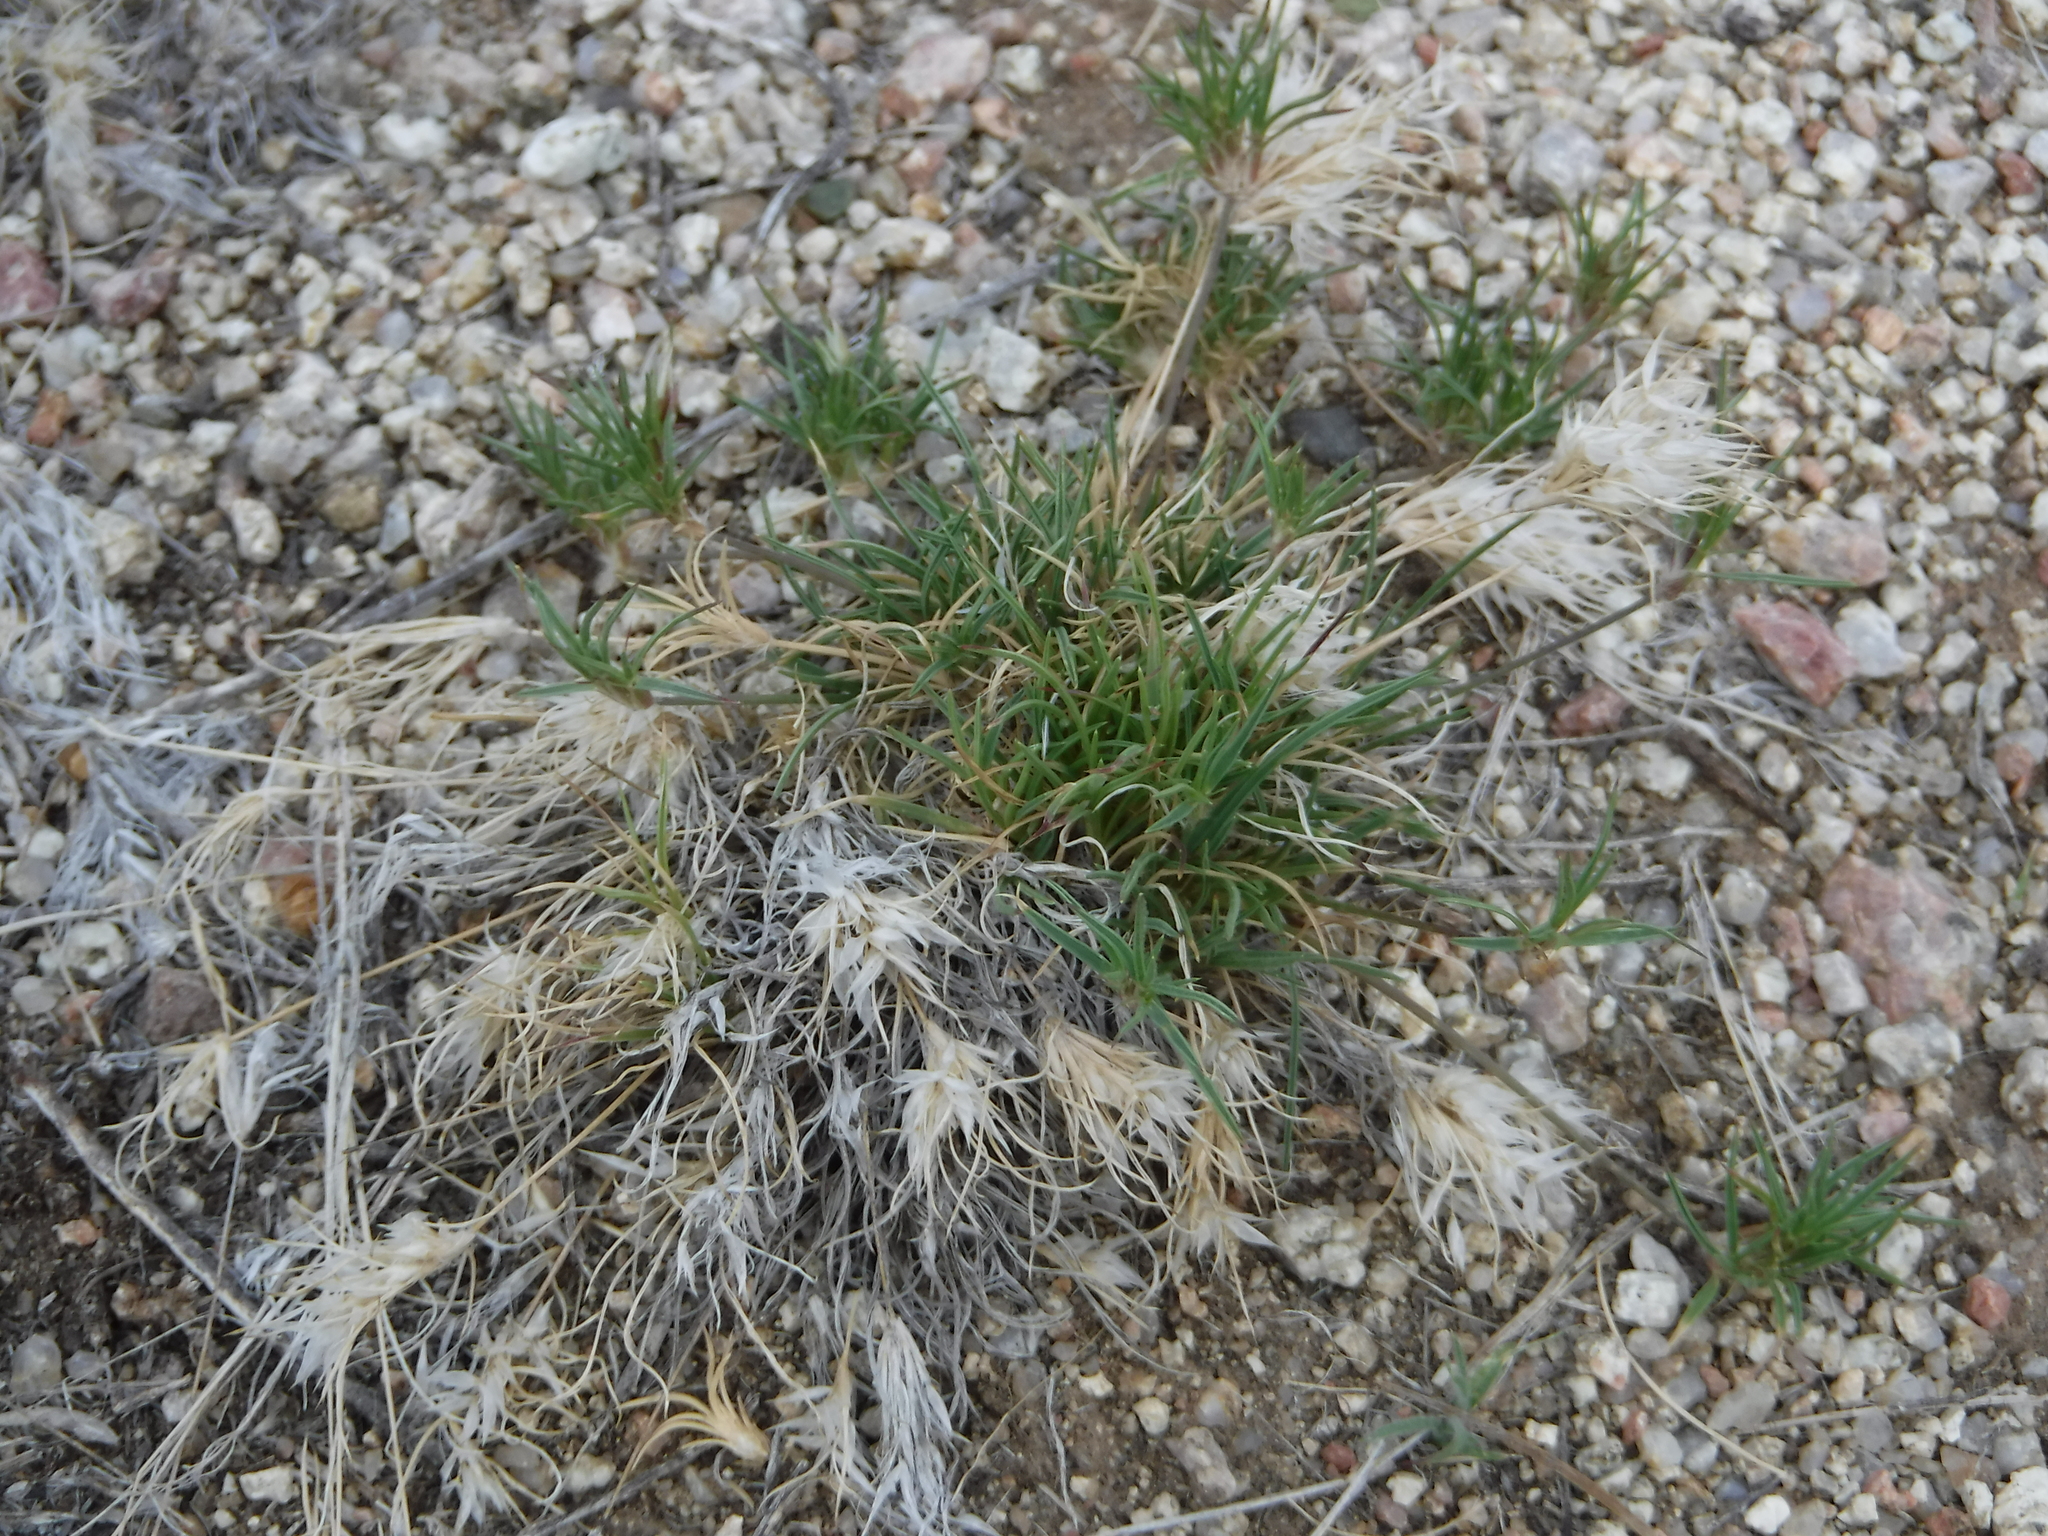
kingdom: Plantae
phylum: Tracheophyta
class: Liliopsida
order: Poales
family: Poaceae
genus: Dasyochloa
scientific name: Dasyochloa pulchella
